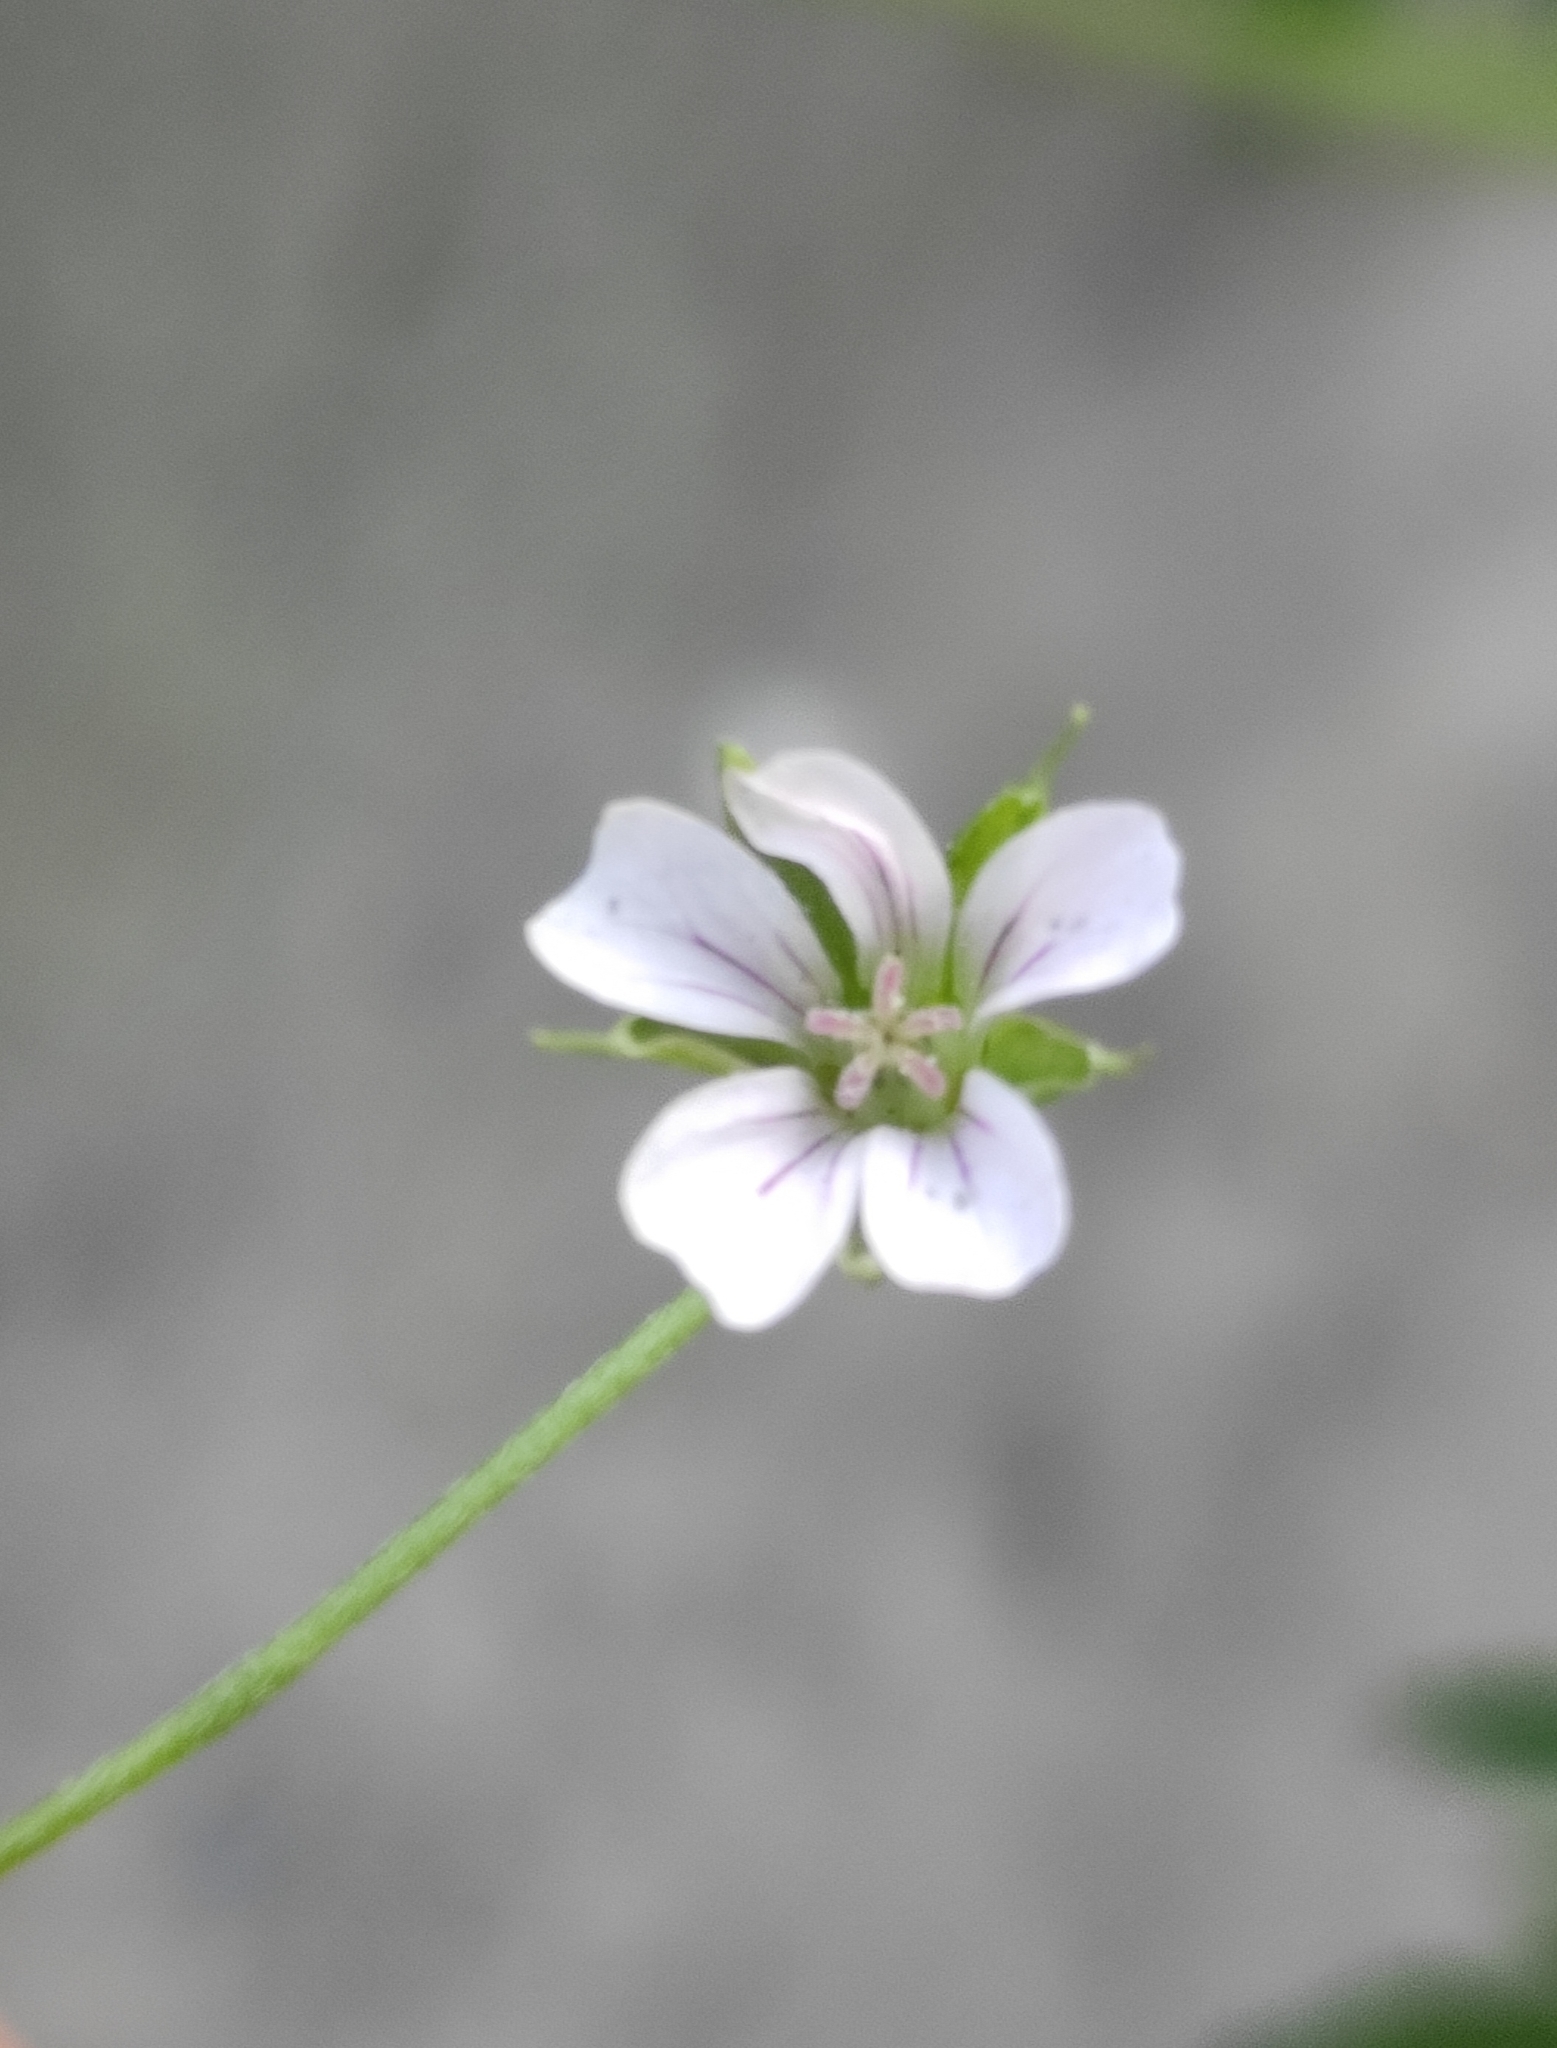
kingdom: Plantae
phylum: Tracheophyta
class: Magnoliopsida
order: Geraniales
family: Geraniaceae
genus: Geranium
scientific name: Geranium sibiricum
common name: Siberian crane's-bill
